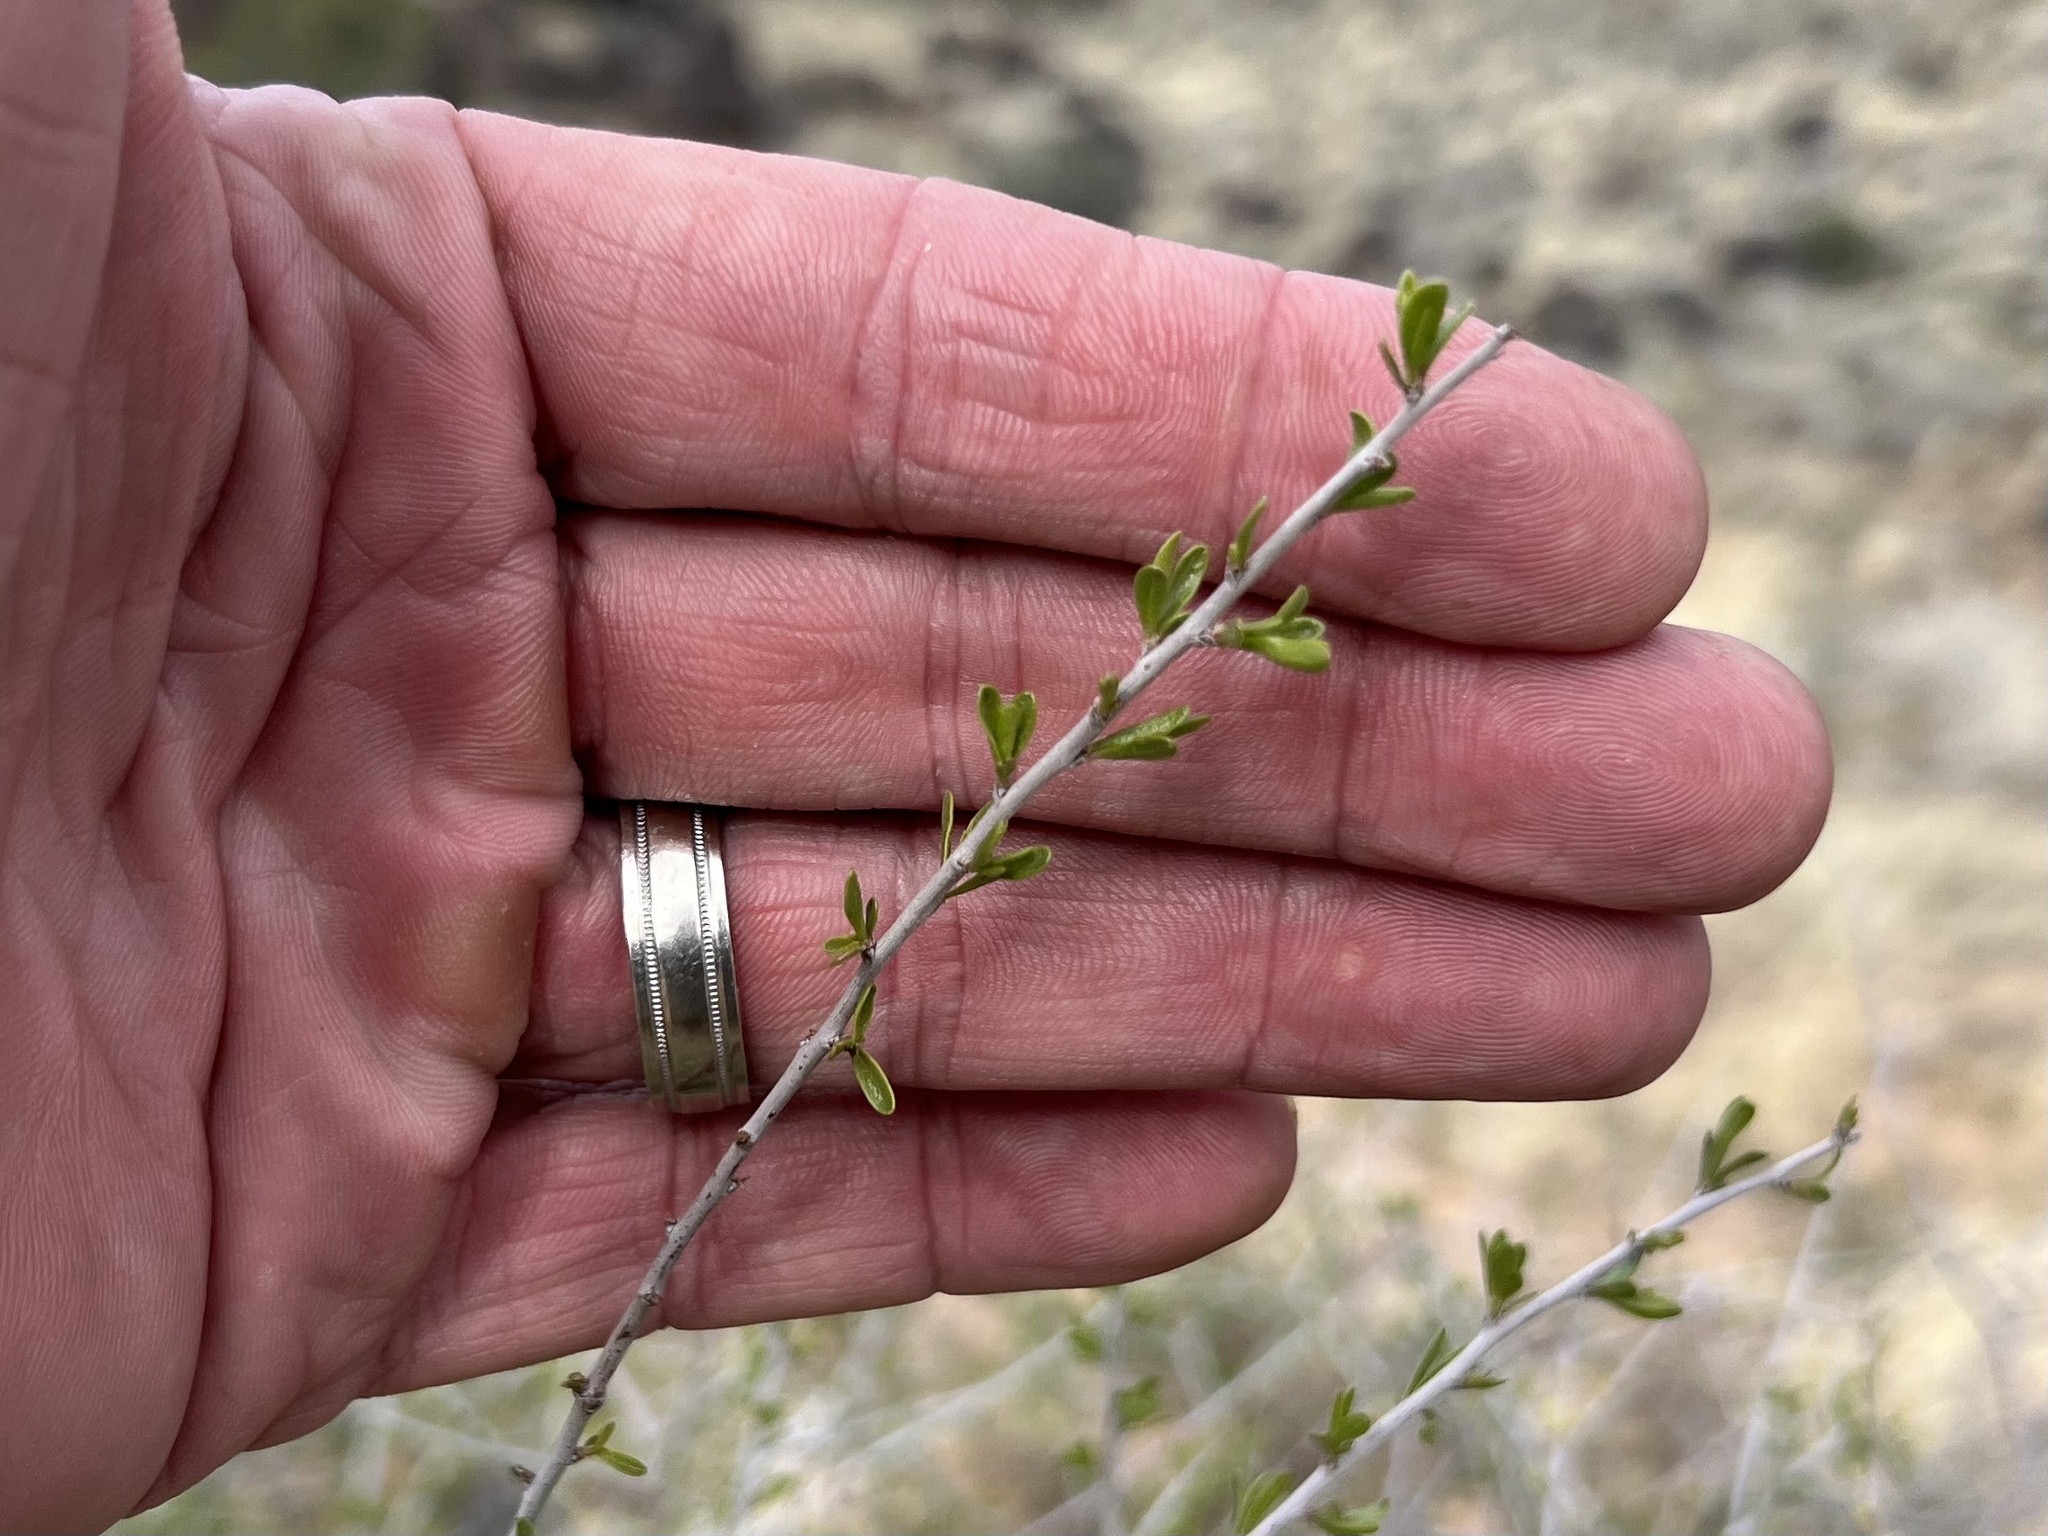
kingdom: Plantae
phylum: Tracheophyta
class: Magnoliopsida
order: Rosales
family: Rosaceae
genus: Prunus
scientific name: Prunus fasciculata
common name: Desert almond
